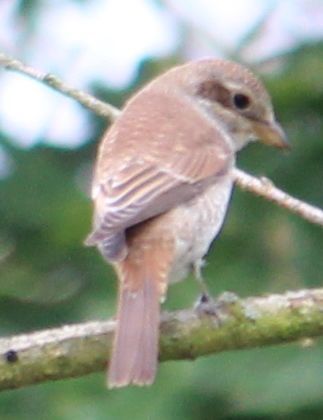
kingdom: Animalia
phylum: Chordata
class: Aves
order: Passeriformes
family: Laniidae
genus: Lanius
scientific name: Lanius collurio
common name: Red-backed shrike
